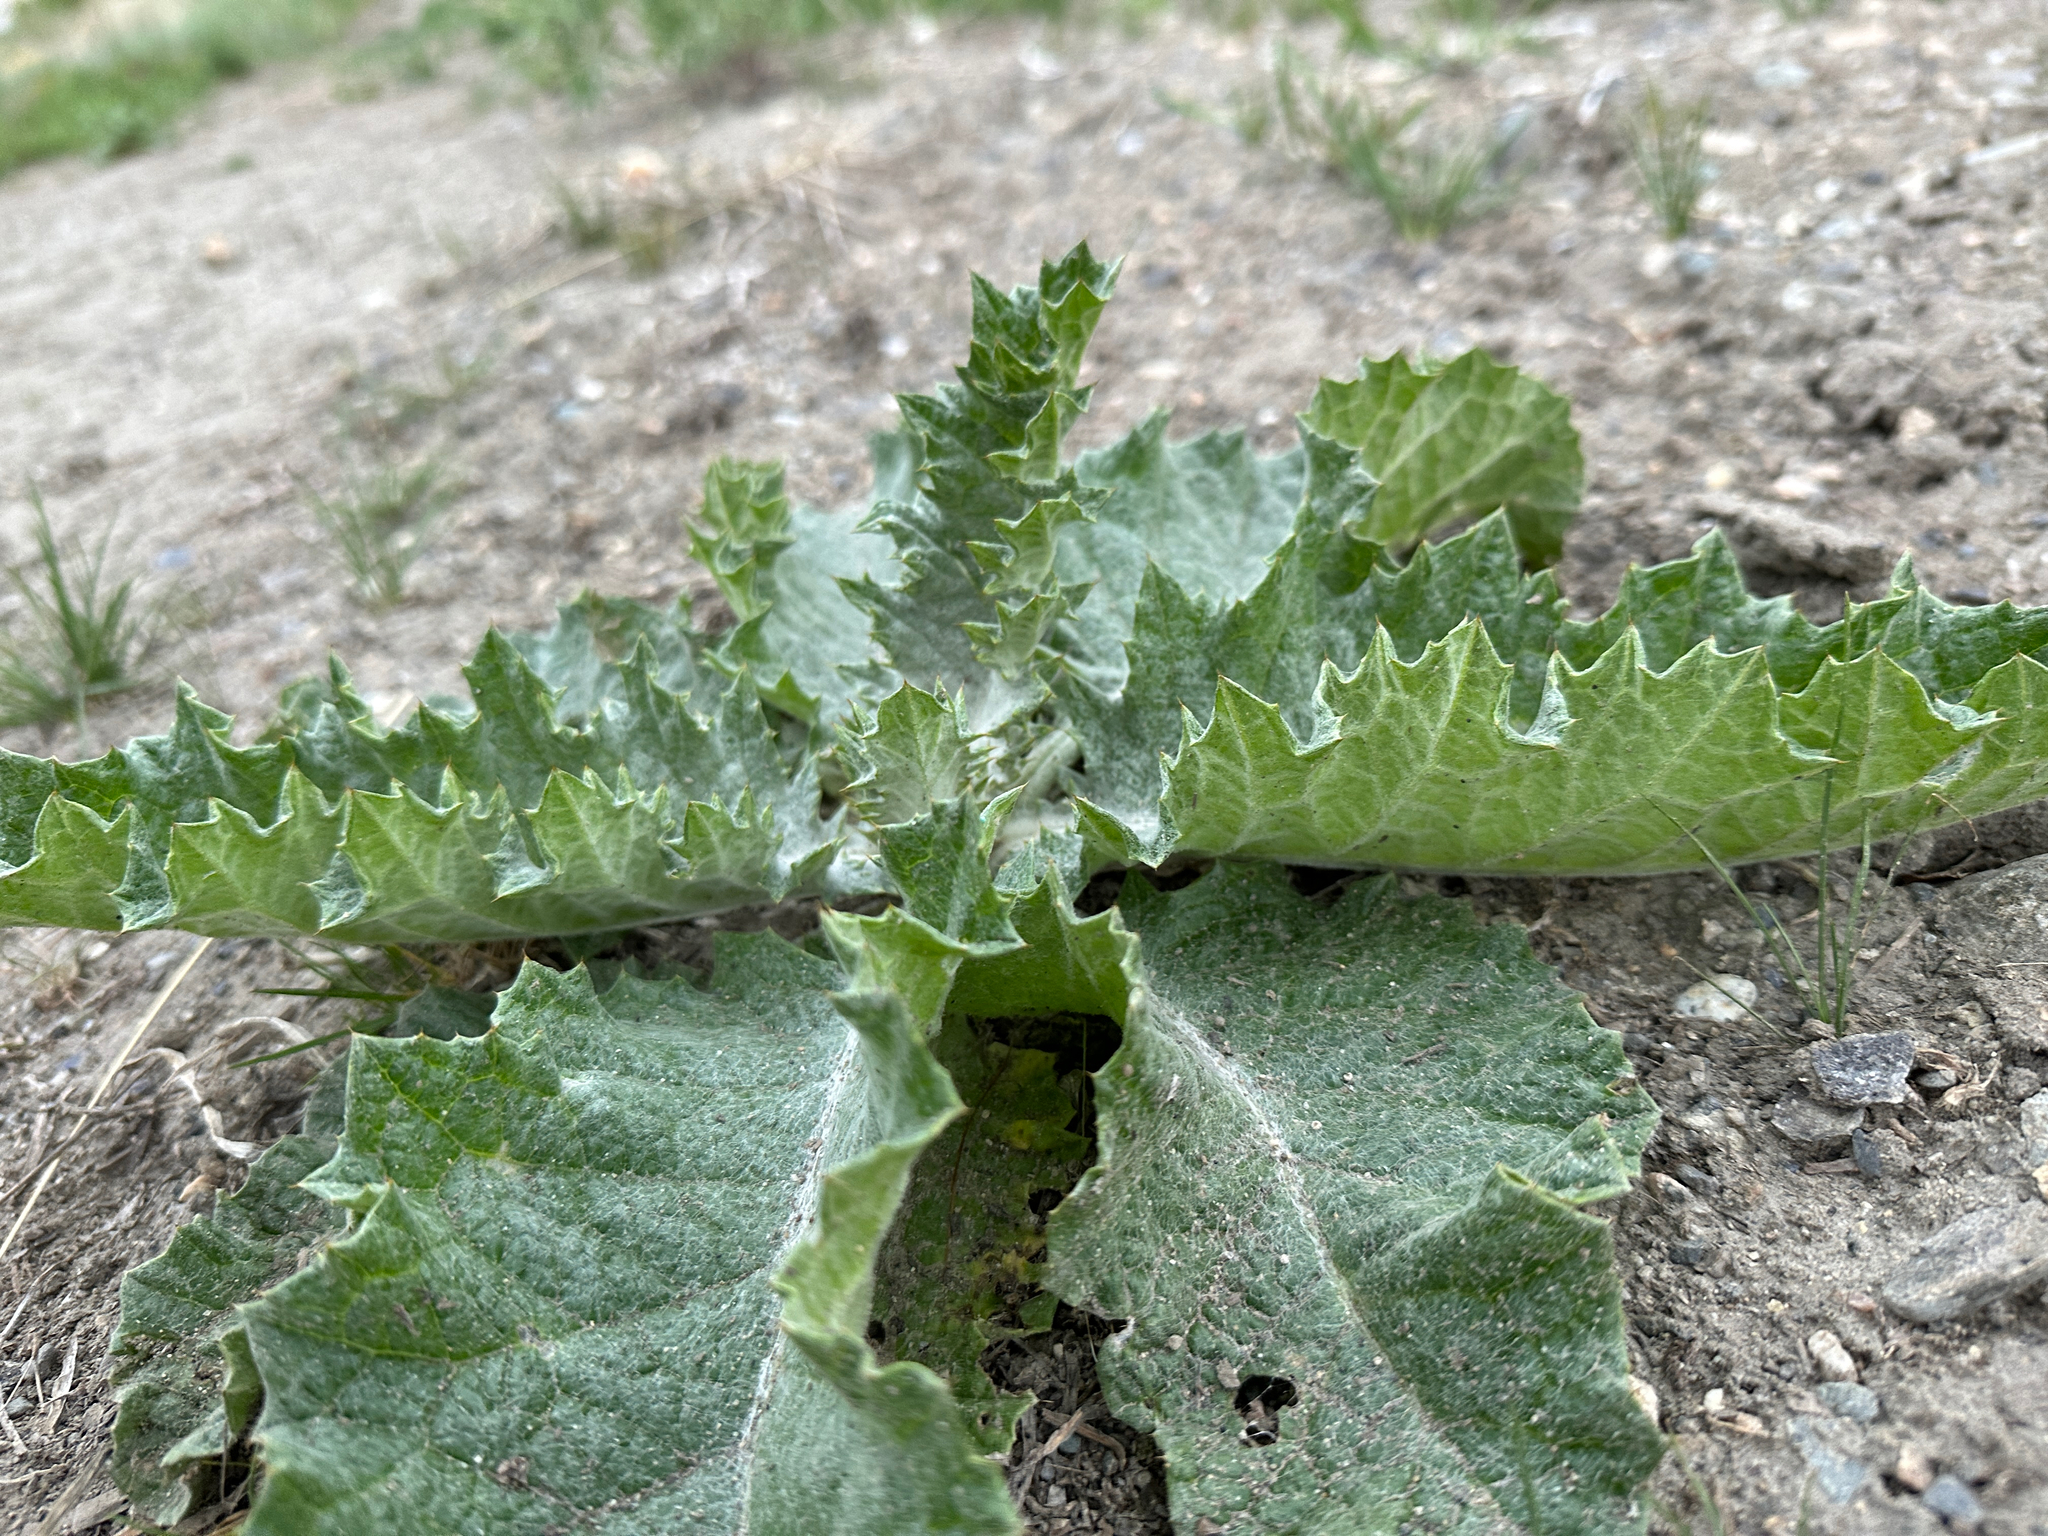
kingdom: Plantae
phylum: Tracheophyta
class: Magnoliopsida
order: Asterales
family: Asteraceae
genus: Onopordum
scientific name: Onopordum acanthium
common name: Scotch thistle
